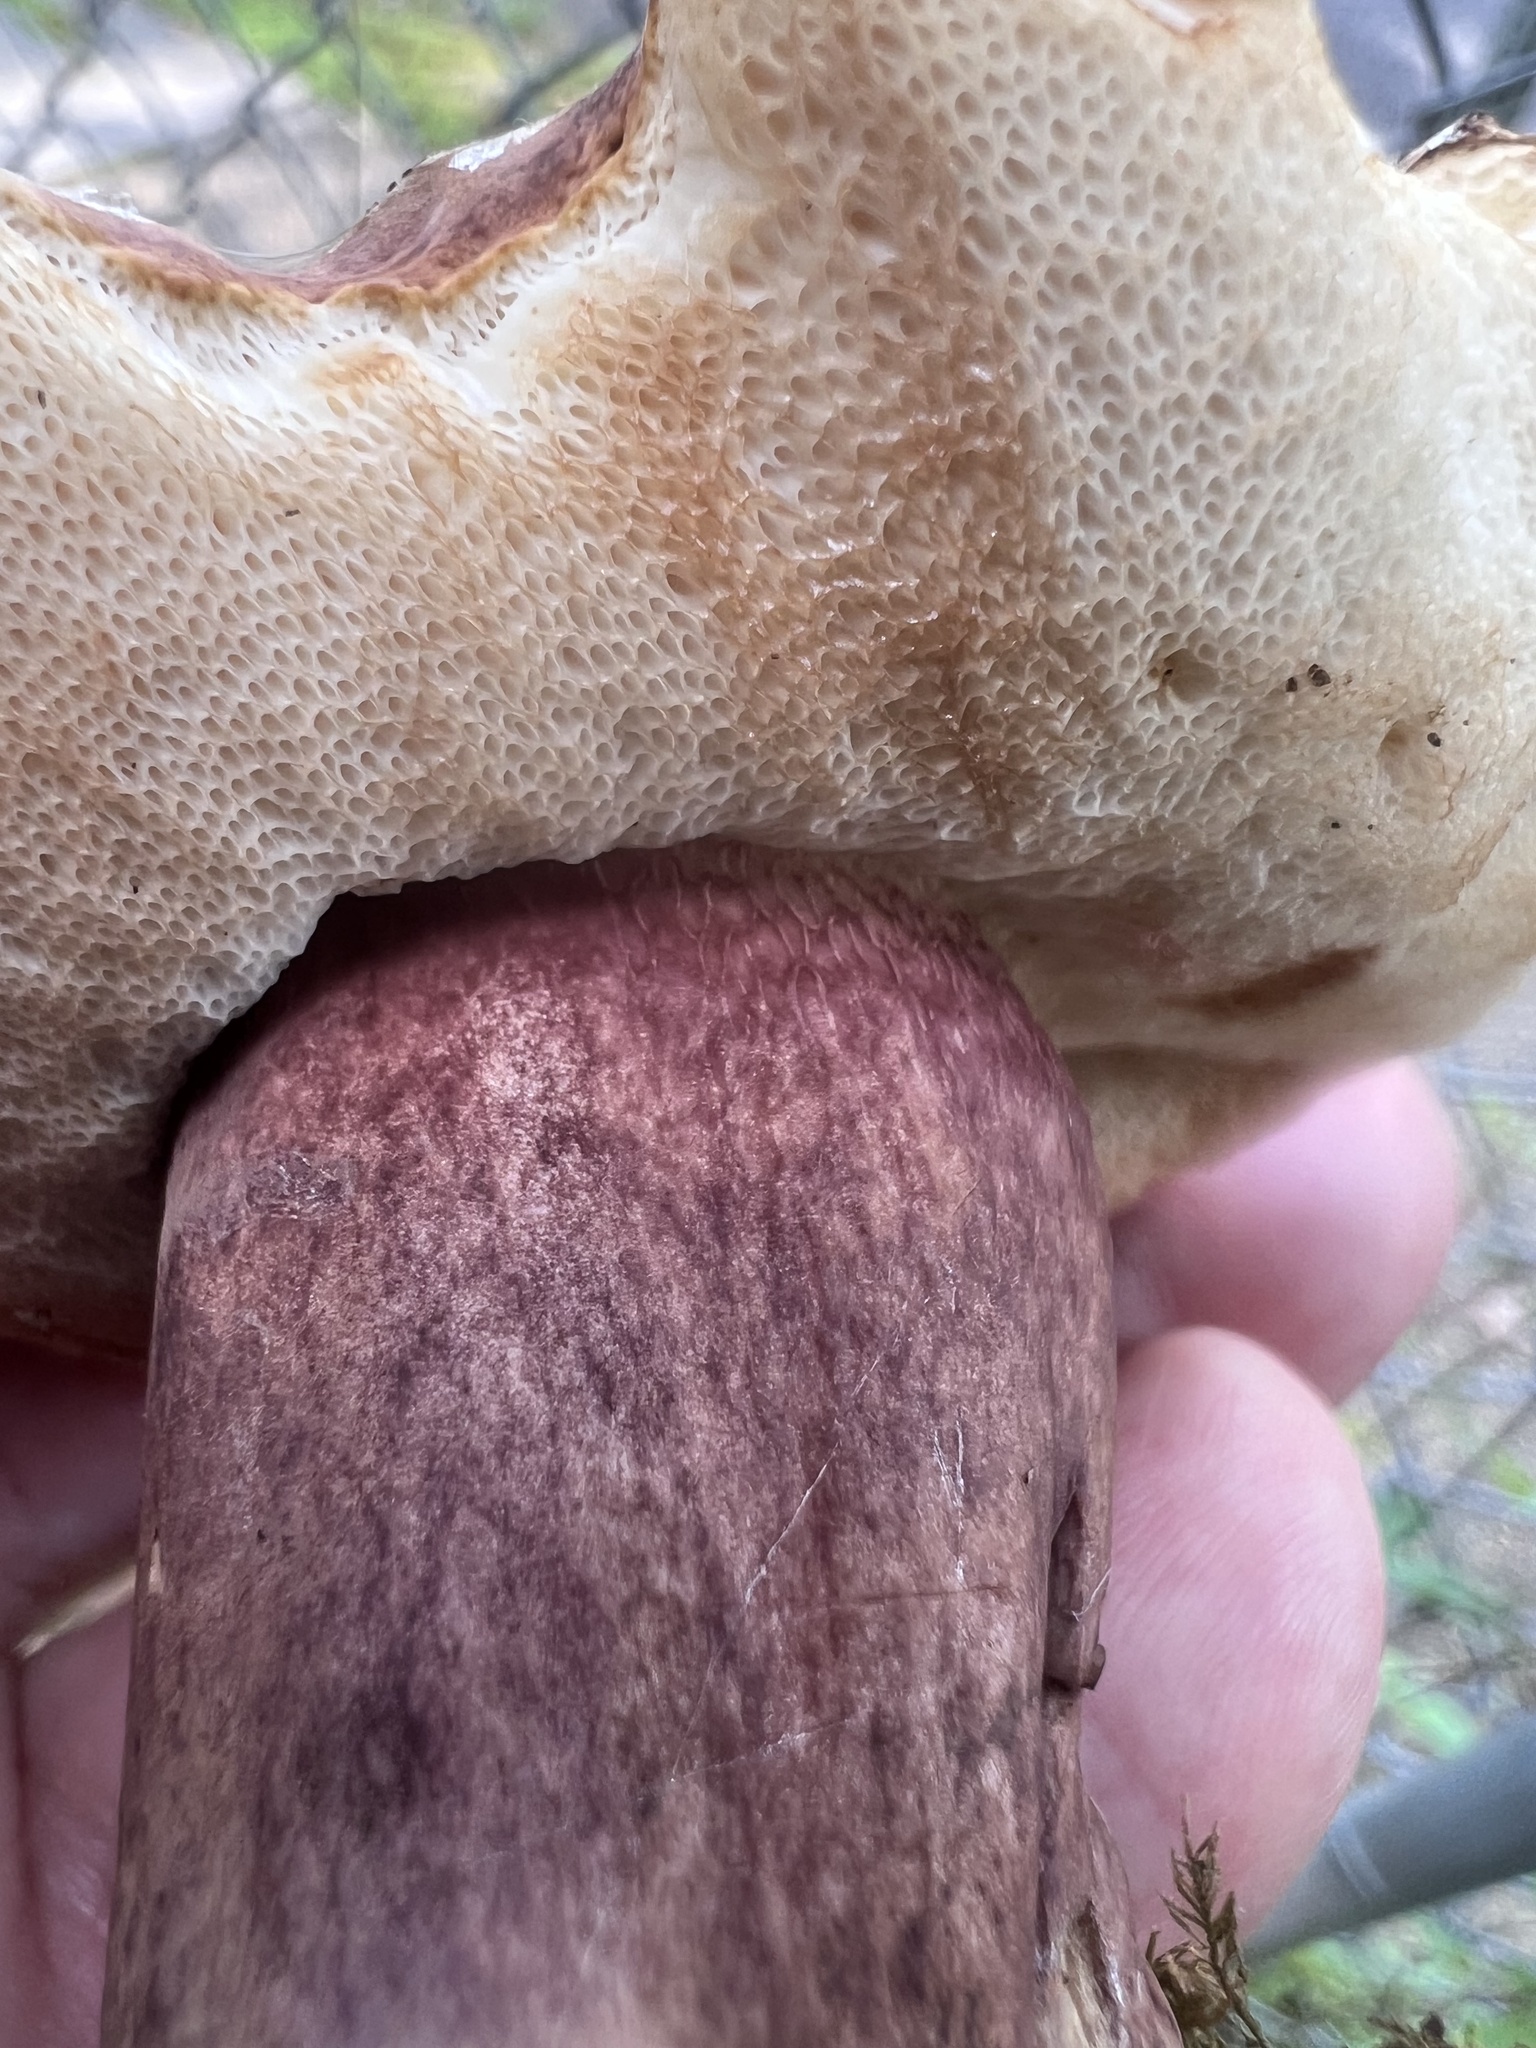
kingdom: Fungi
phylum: Basidiomycota
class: Agaricomycetes
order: Boletales
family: Boletaceae
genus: Tylopilus
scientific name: Tylopilus badiceps
